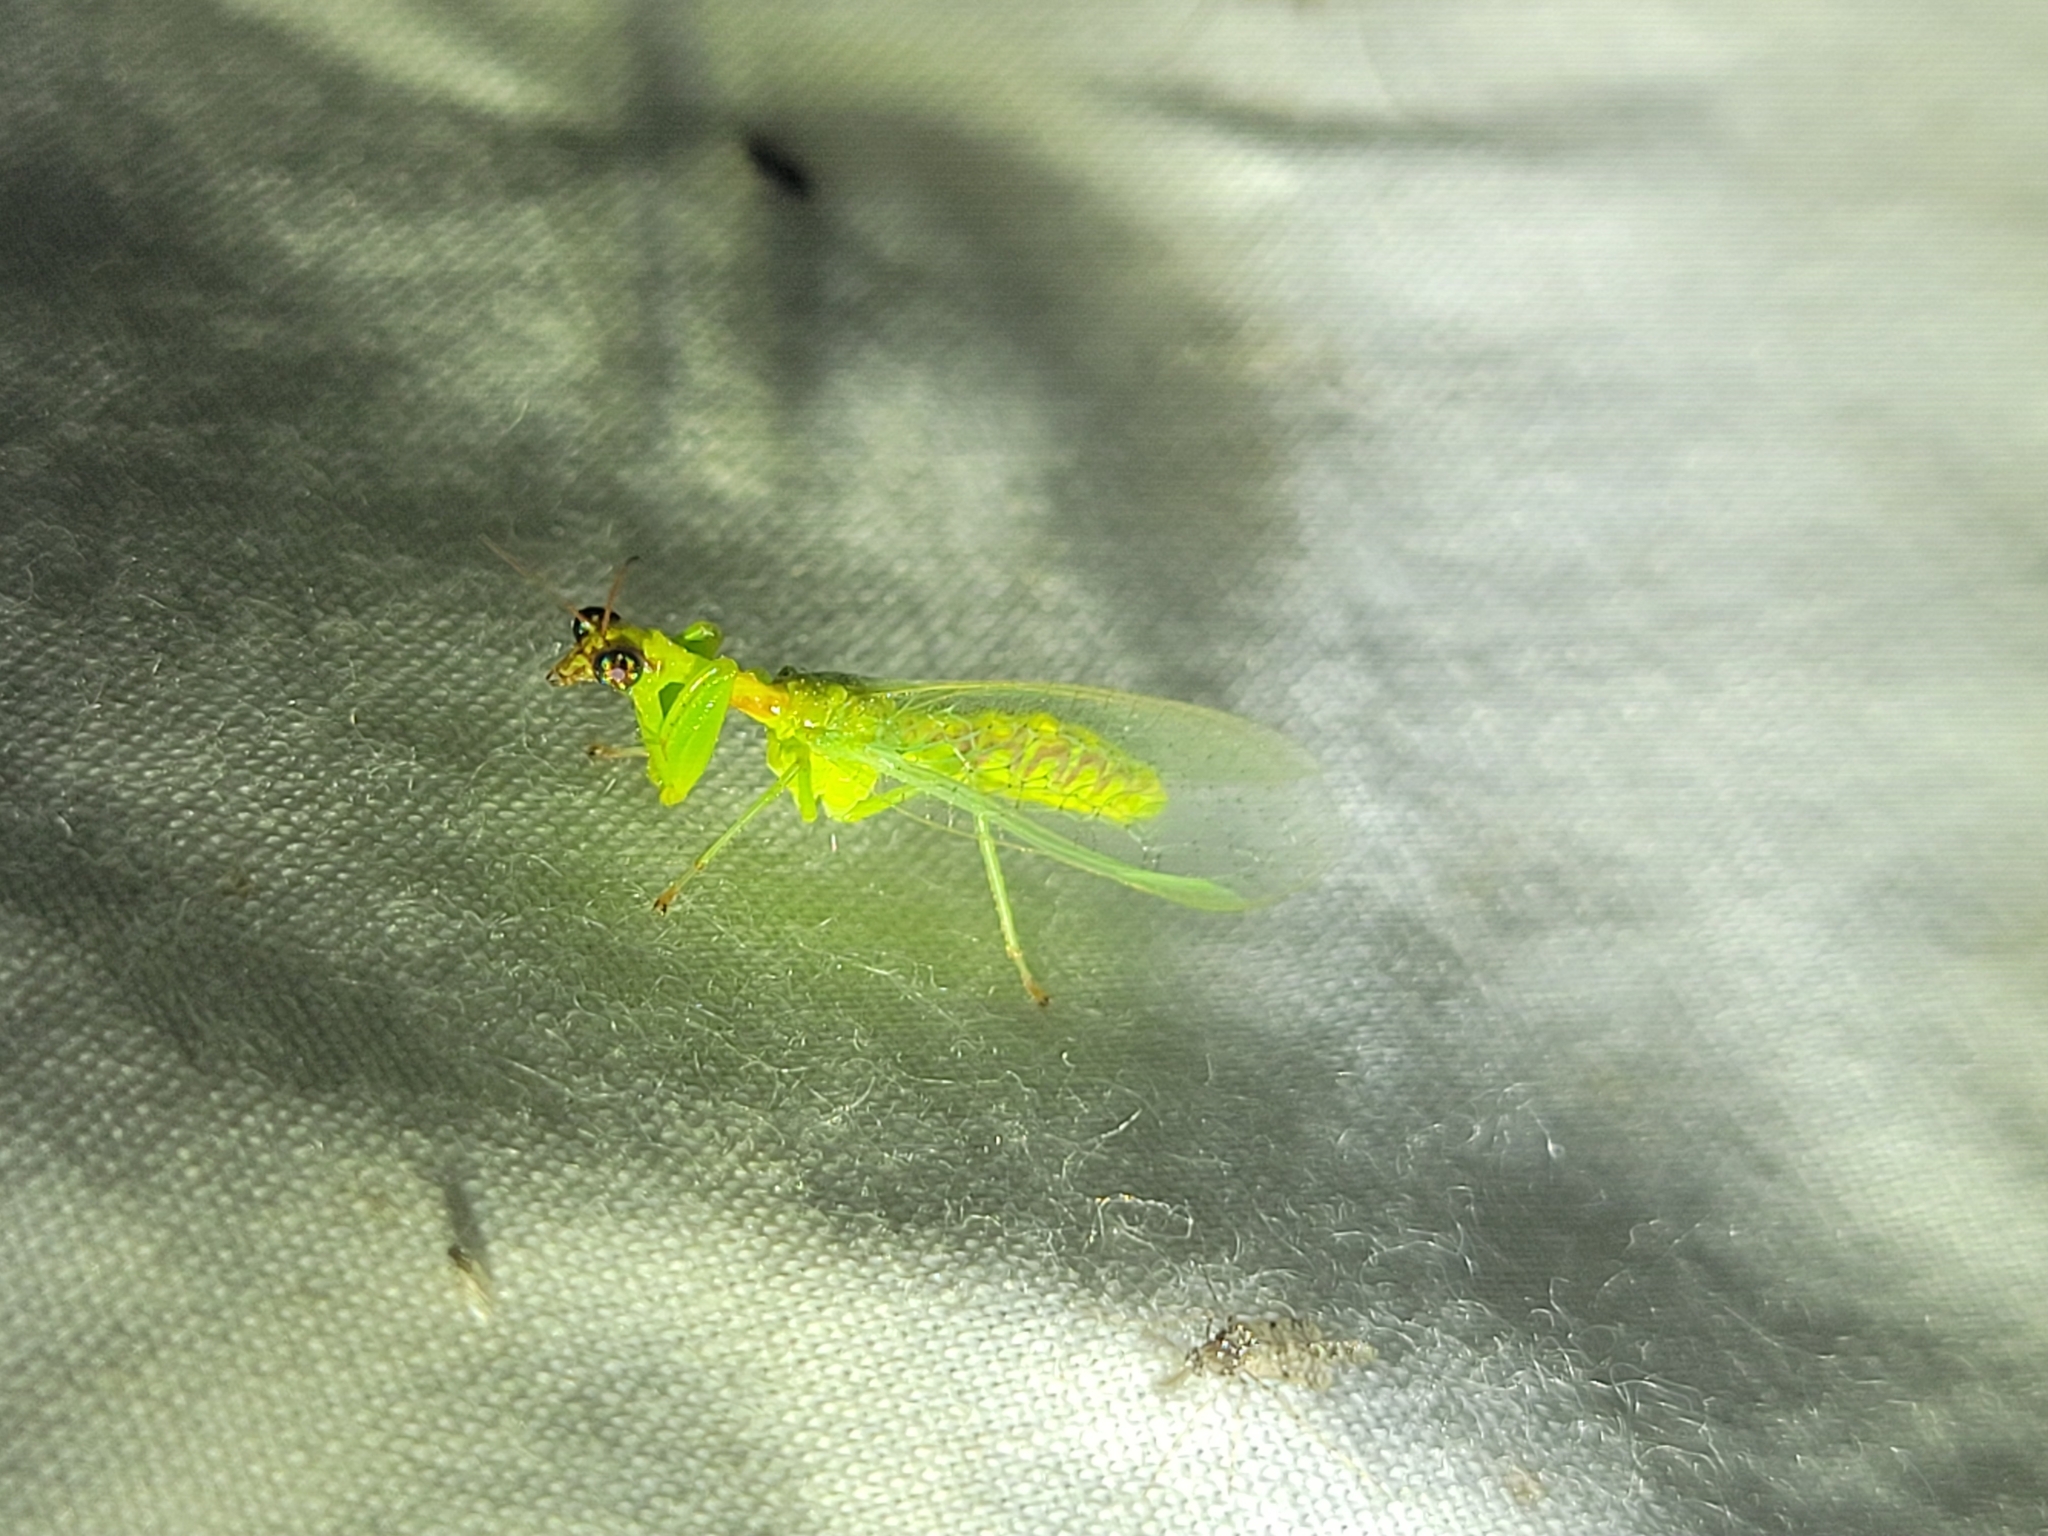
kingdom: Animalia
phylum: Arthropoda
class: Insecta
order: Neuroptera
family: Mantispidae
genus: Zeugomantispa
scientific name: Zeugomantispa minuta
